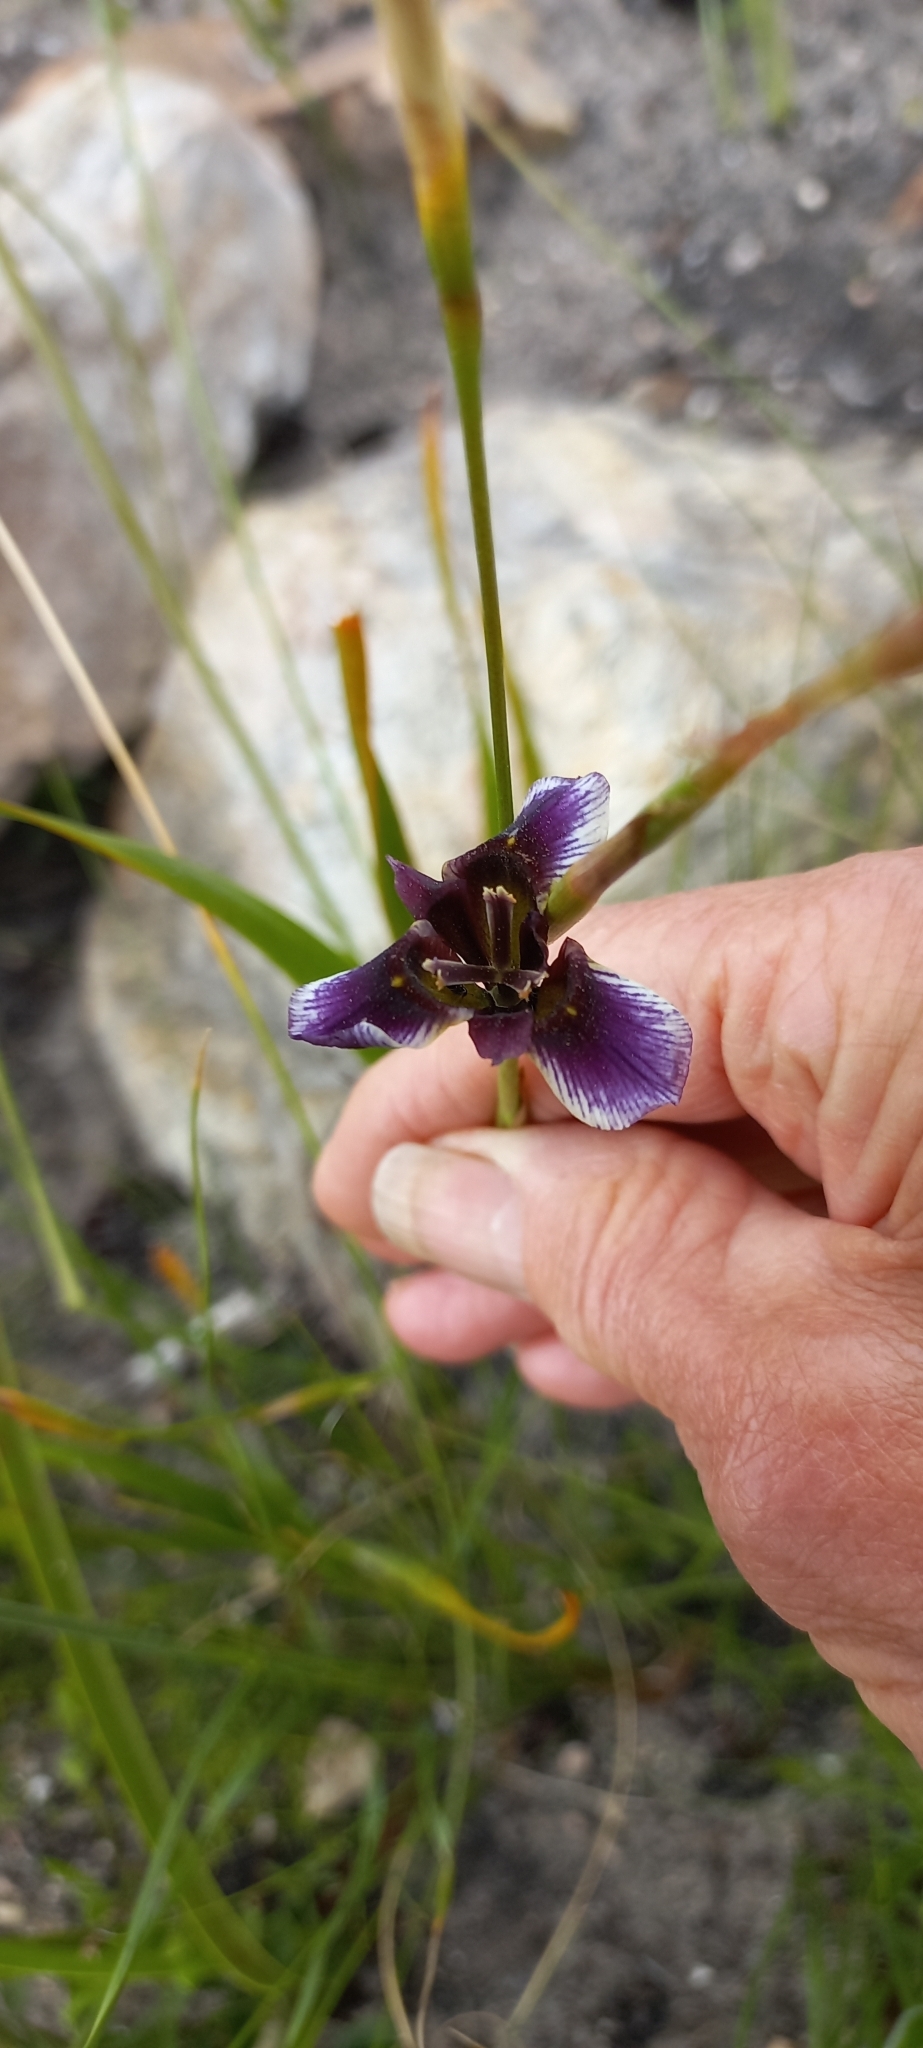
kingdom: Plantae
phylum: Tracheophyta
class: Liliopsida
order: Asparagales
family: Iridaceae
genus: Moraea
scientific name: Moraea lurida
